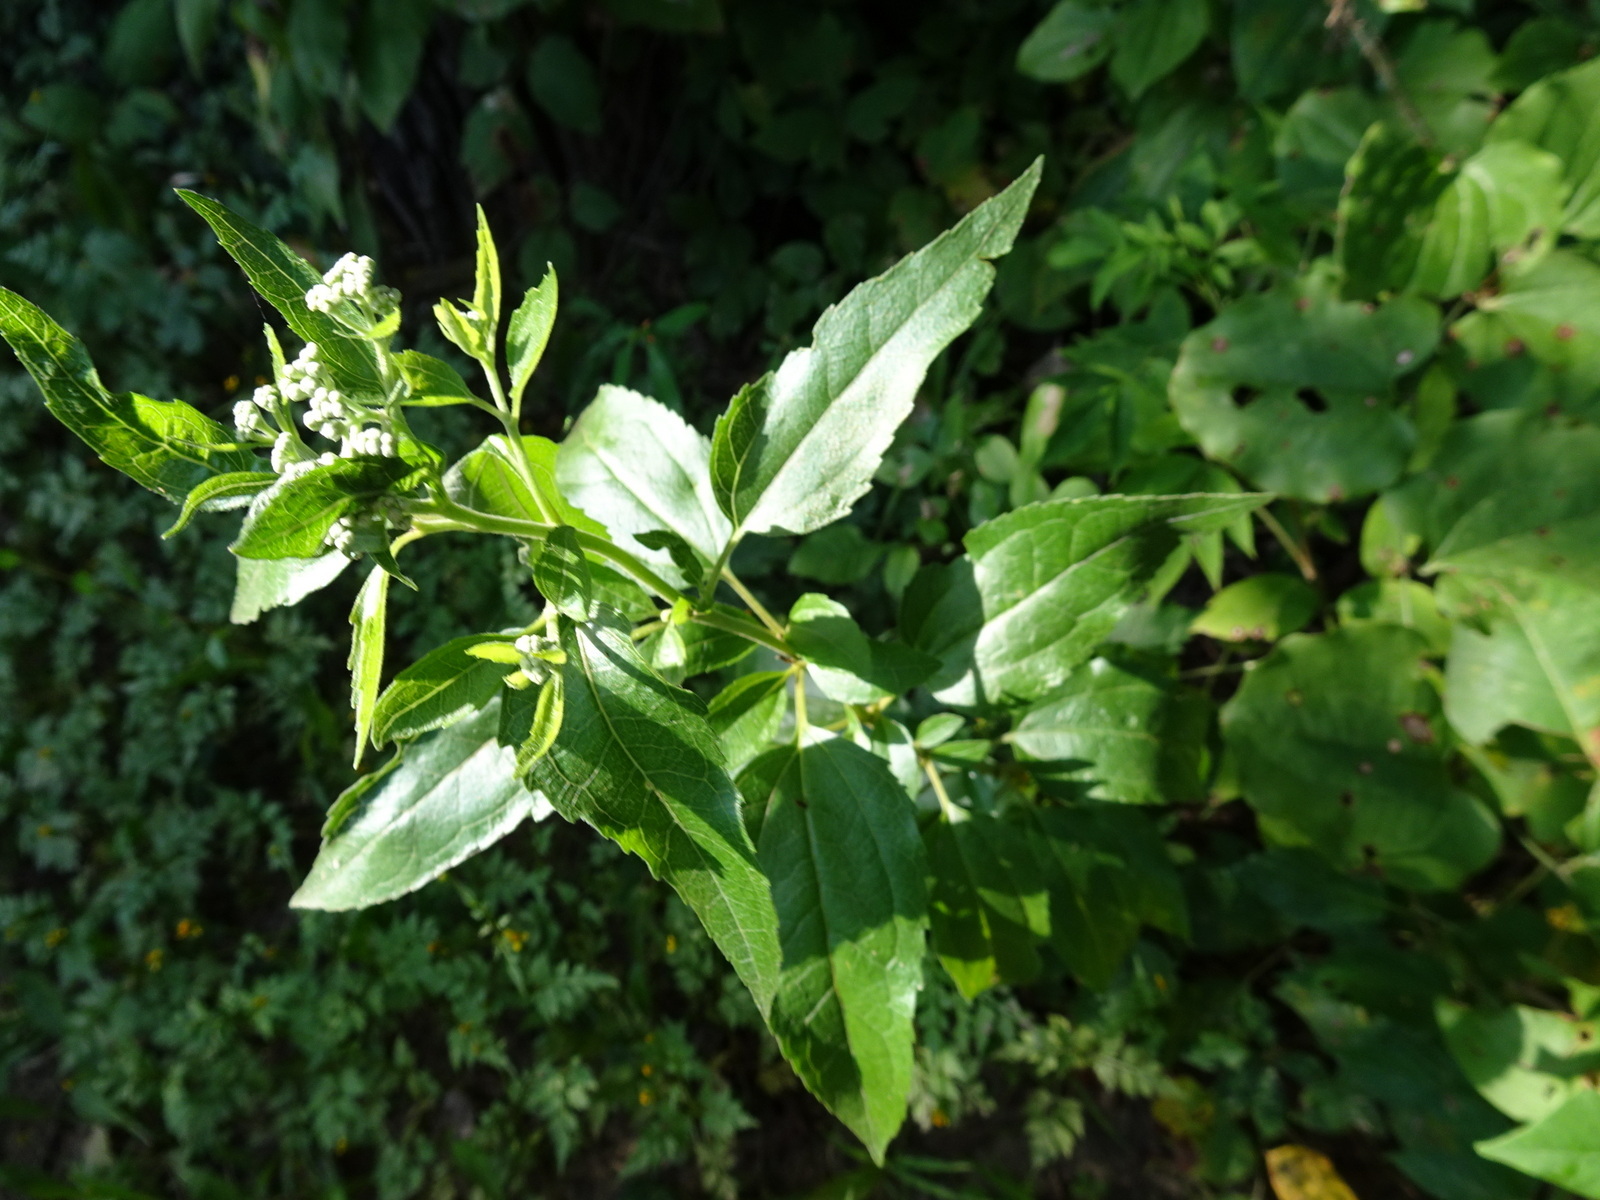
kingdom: Plantae
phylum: Tracheophyta
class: Magnoliopsida
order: Asterales
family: Asteraceae
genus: Eupatorium
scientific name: Eupatorium serotinum
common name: Late boneset
